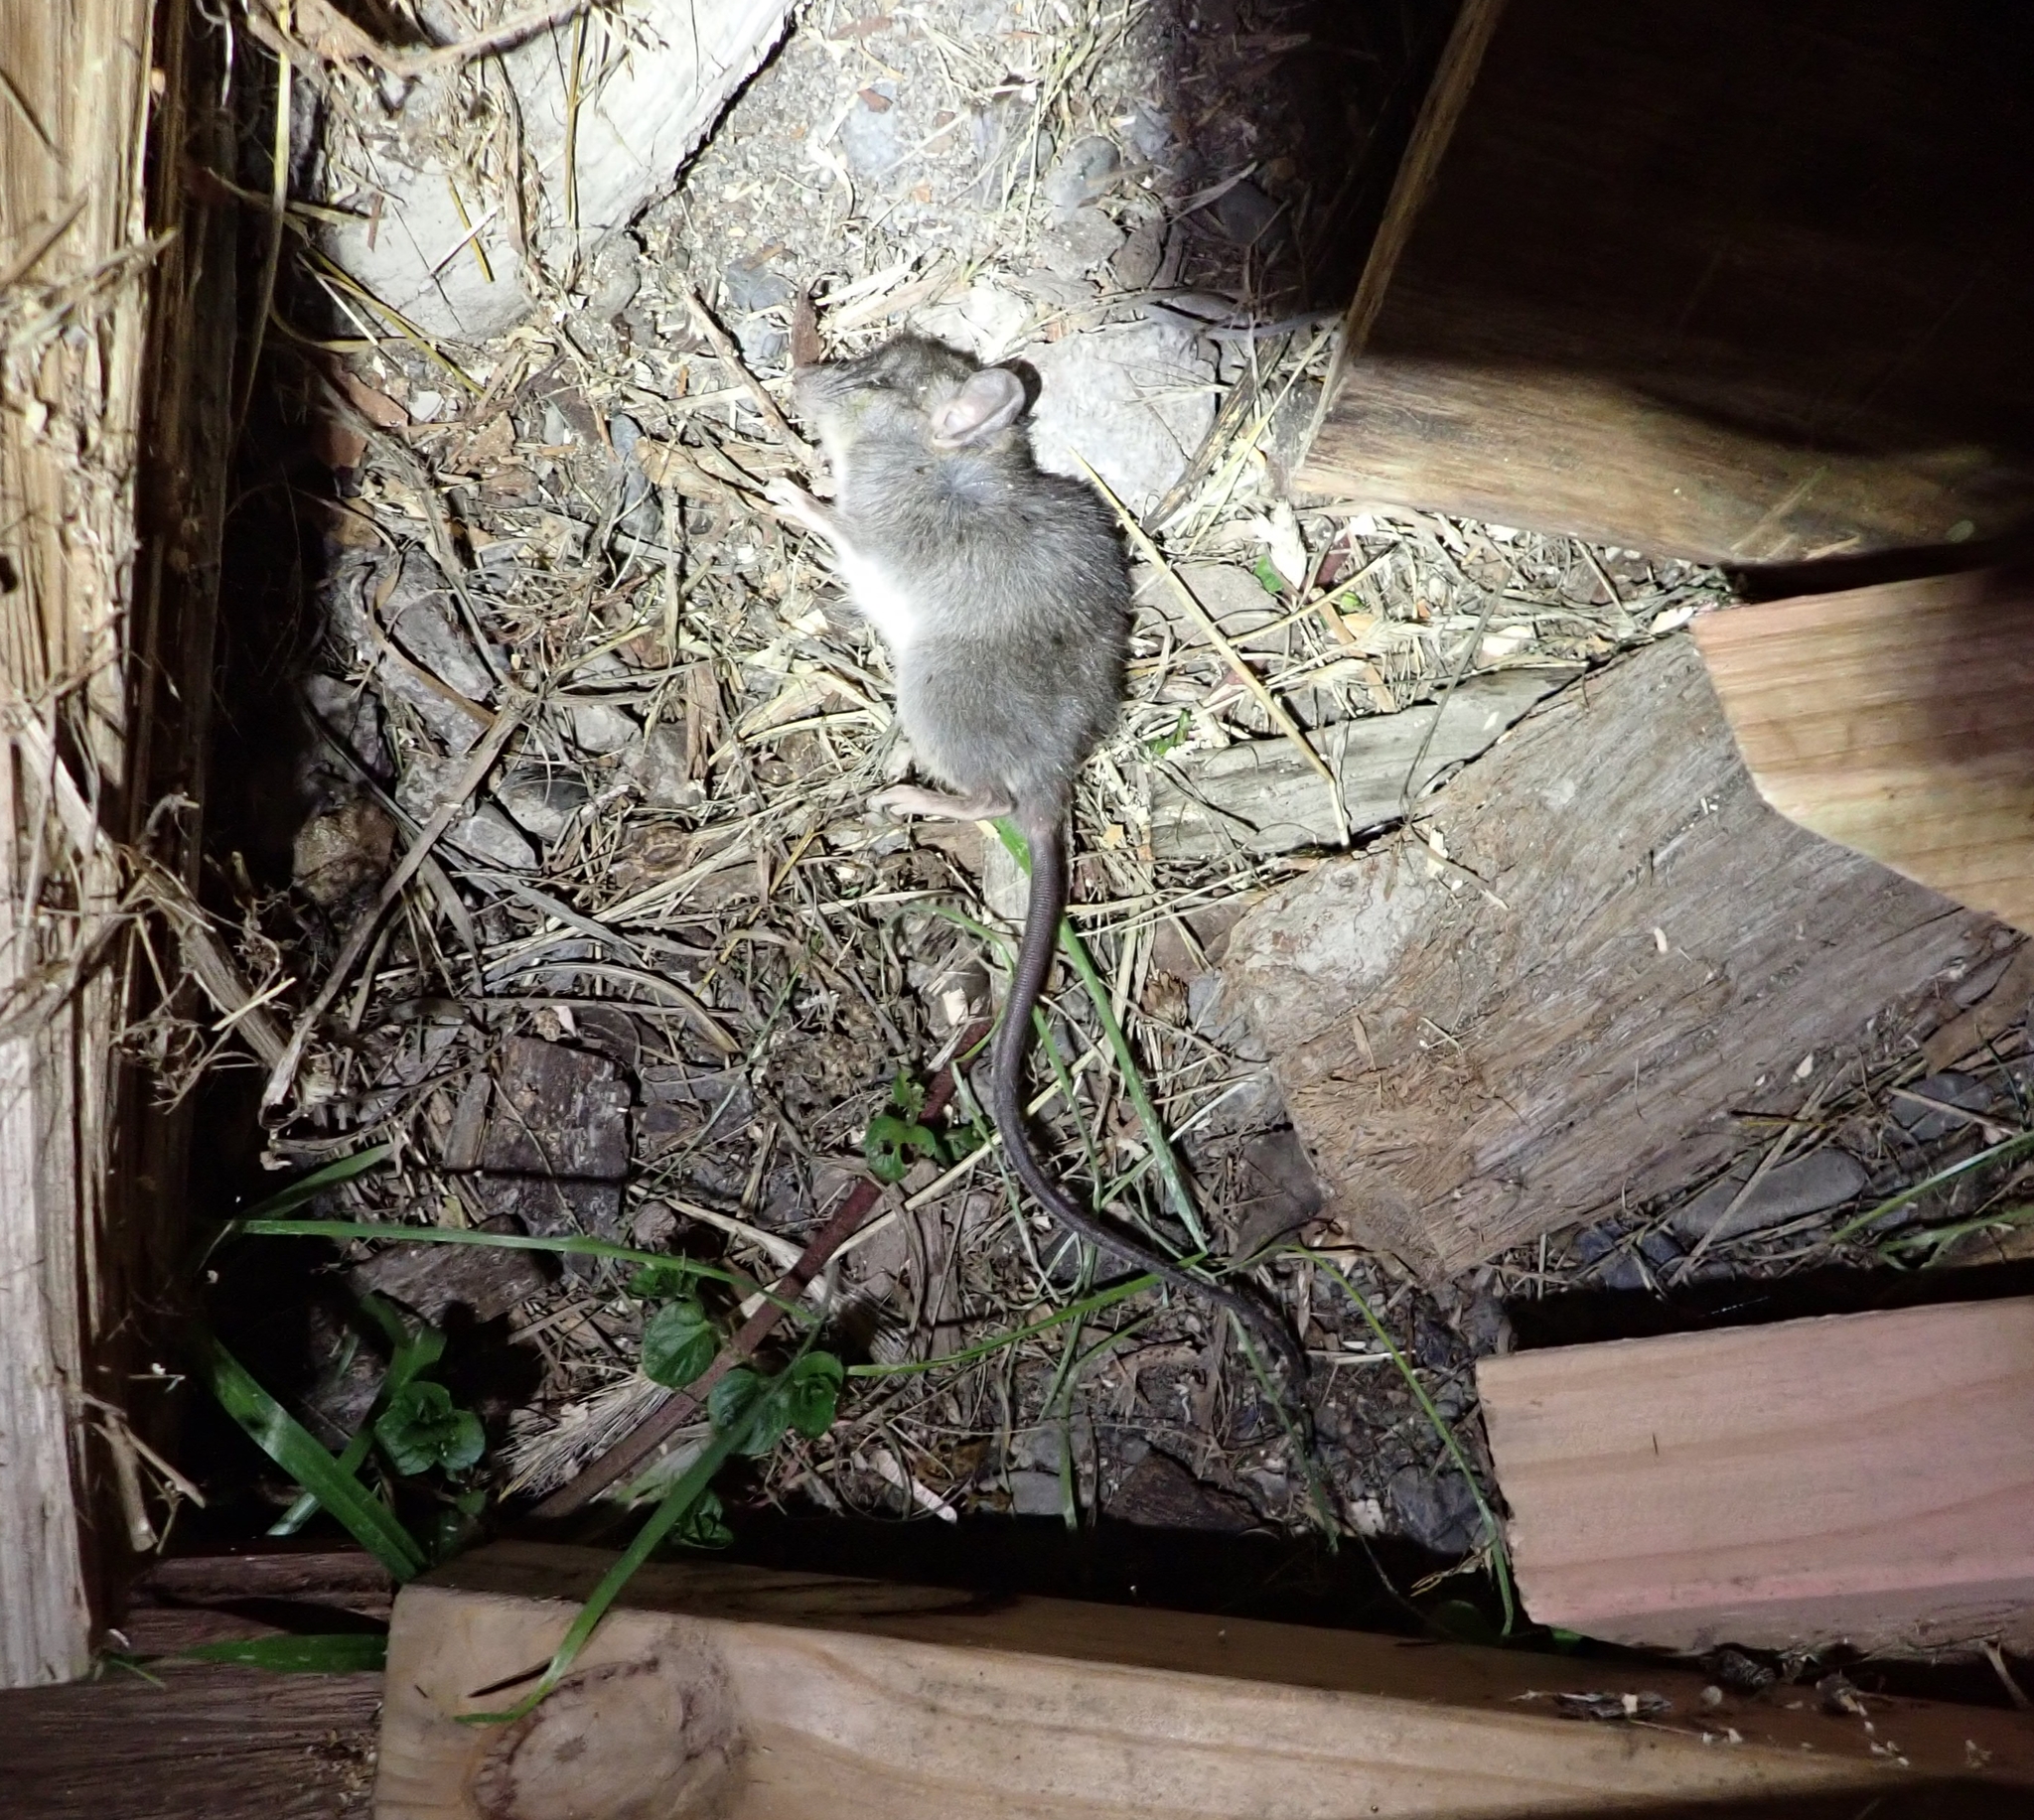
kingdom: Animalia
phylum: Chordata
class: Mammalia
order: Rodentia
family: Muridae
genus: Rattus
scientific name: Rattus rattus
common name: Black rat
